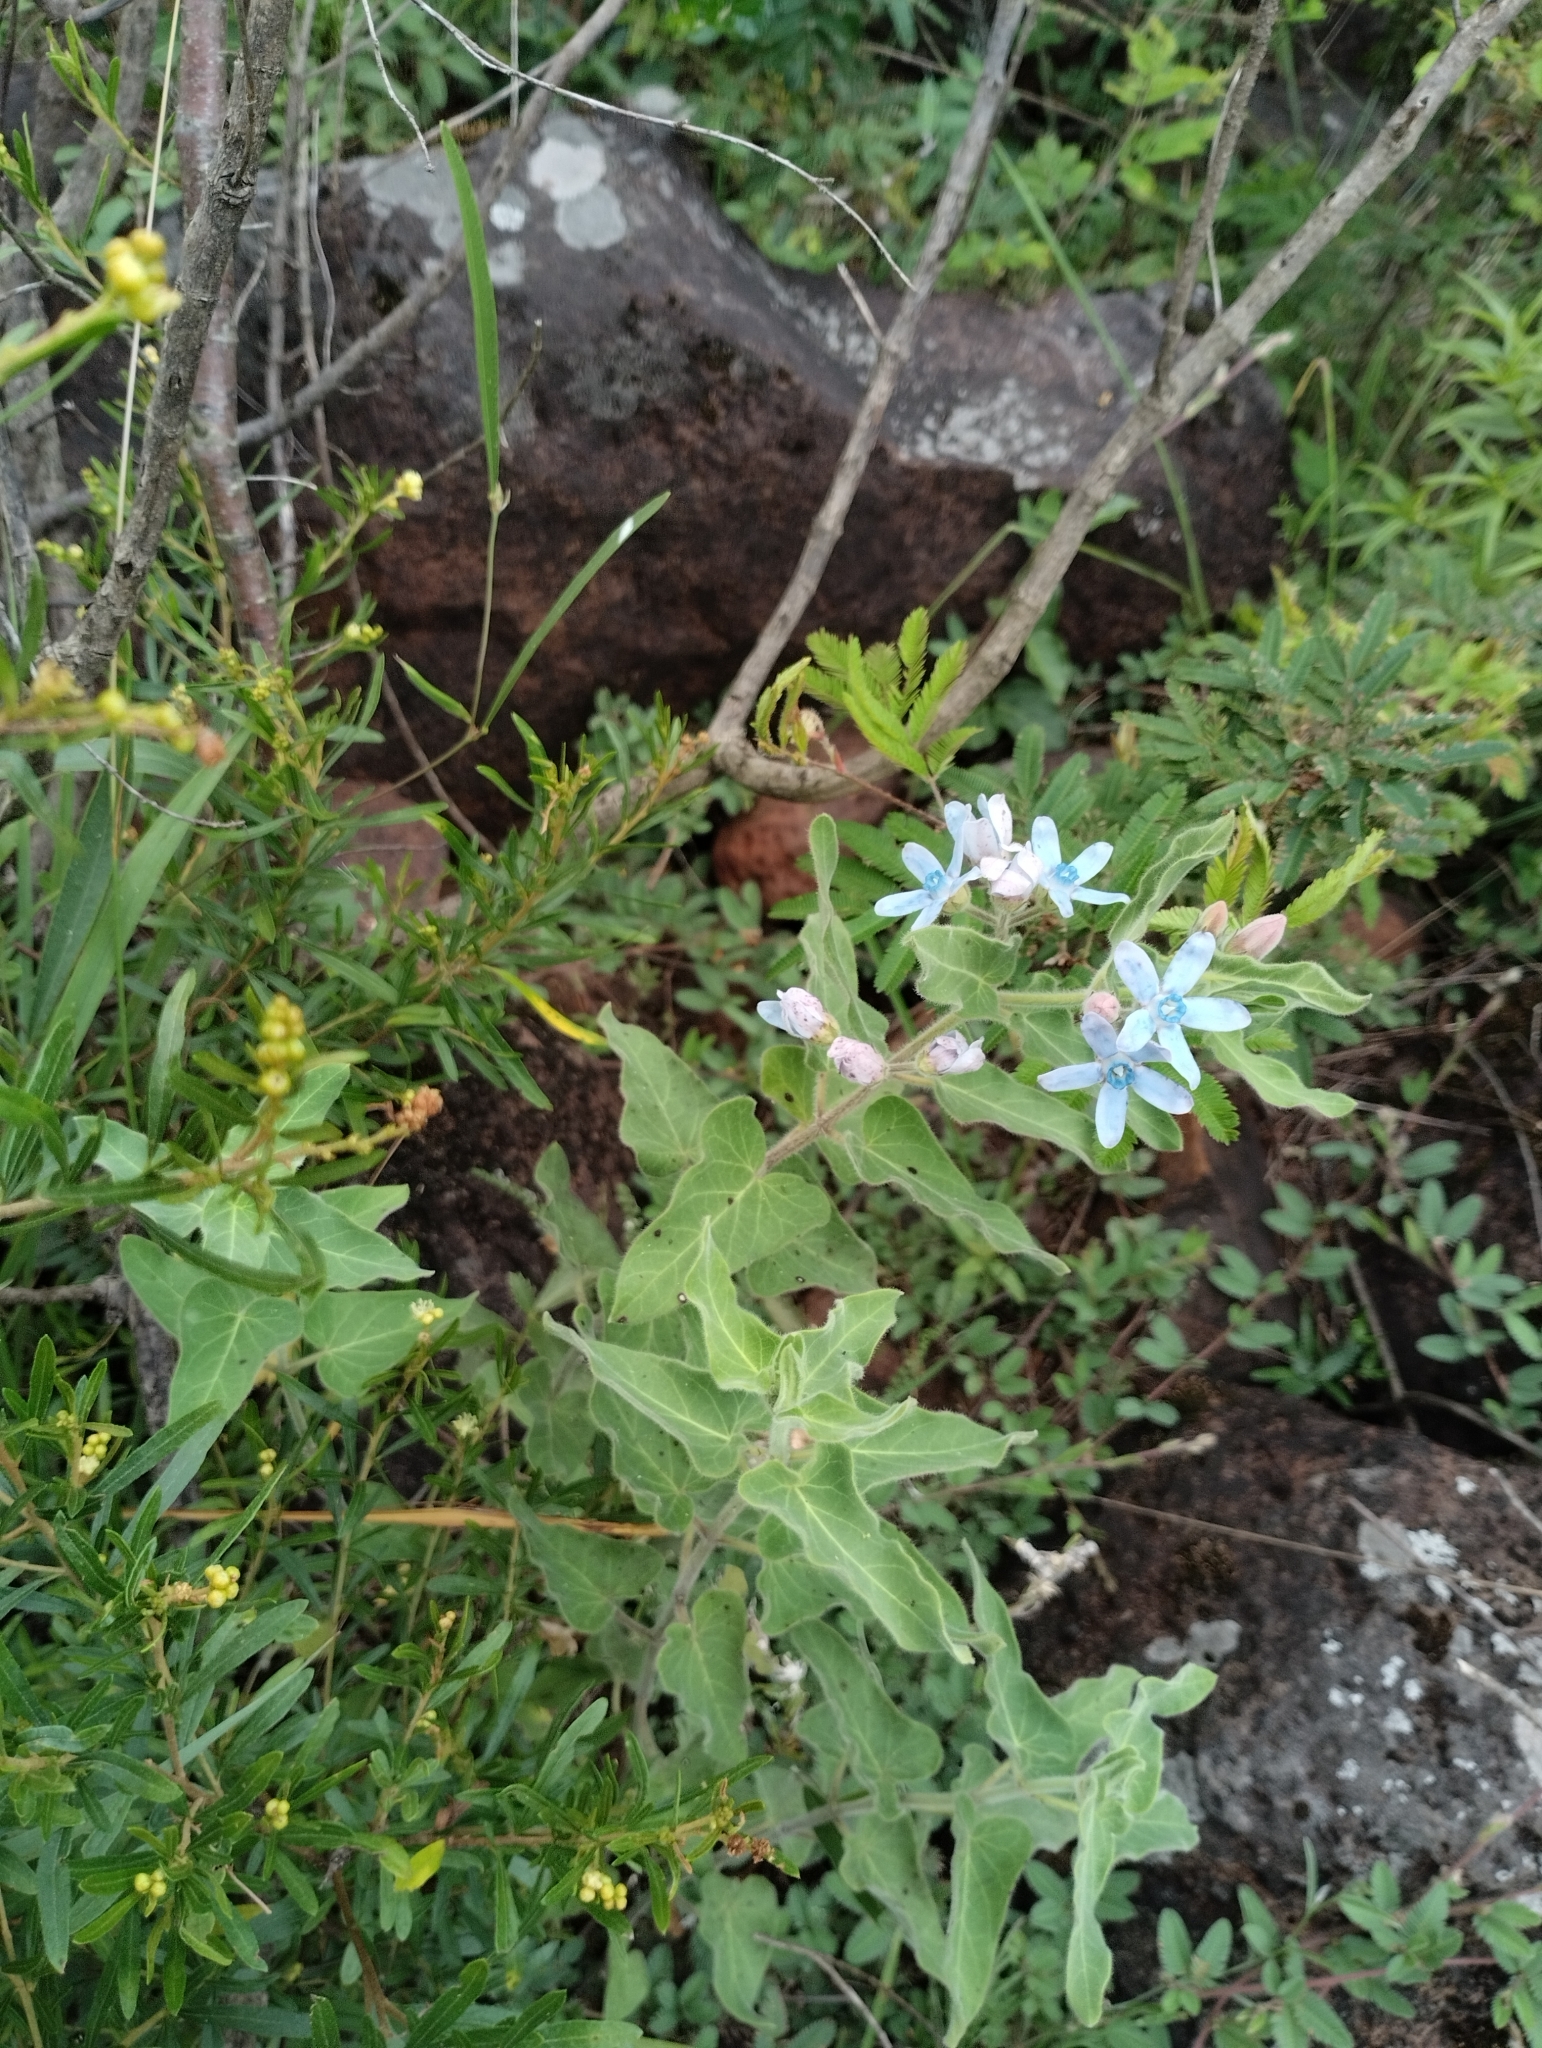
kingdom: Plantae
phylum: Tracheophyta
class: Magnoliopsida
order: Gentianales
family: Apocynaceae
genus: Oxypetalum
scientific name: Oxypetalum coeruleum
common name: Southern star
